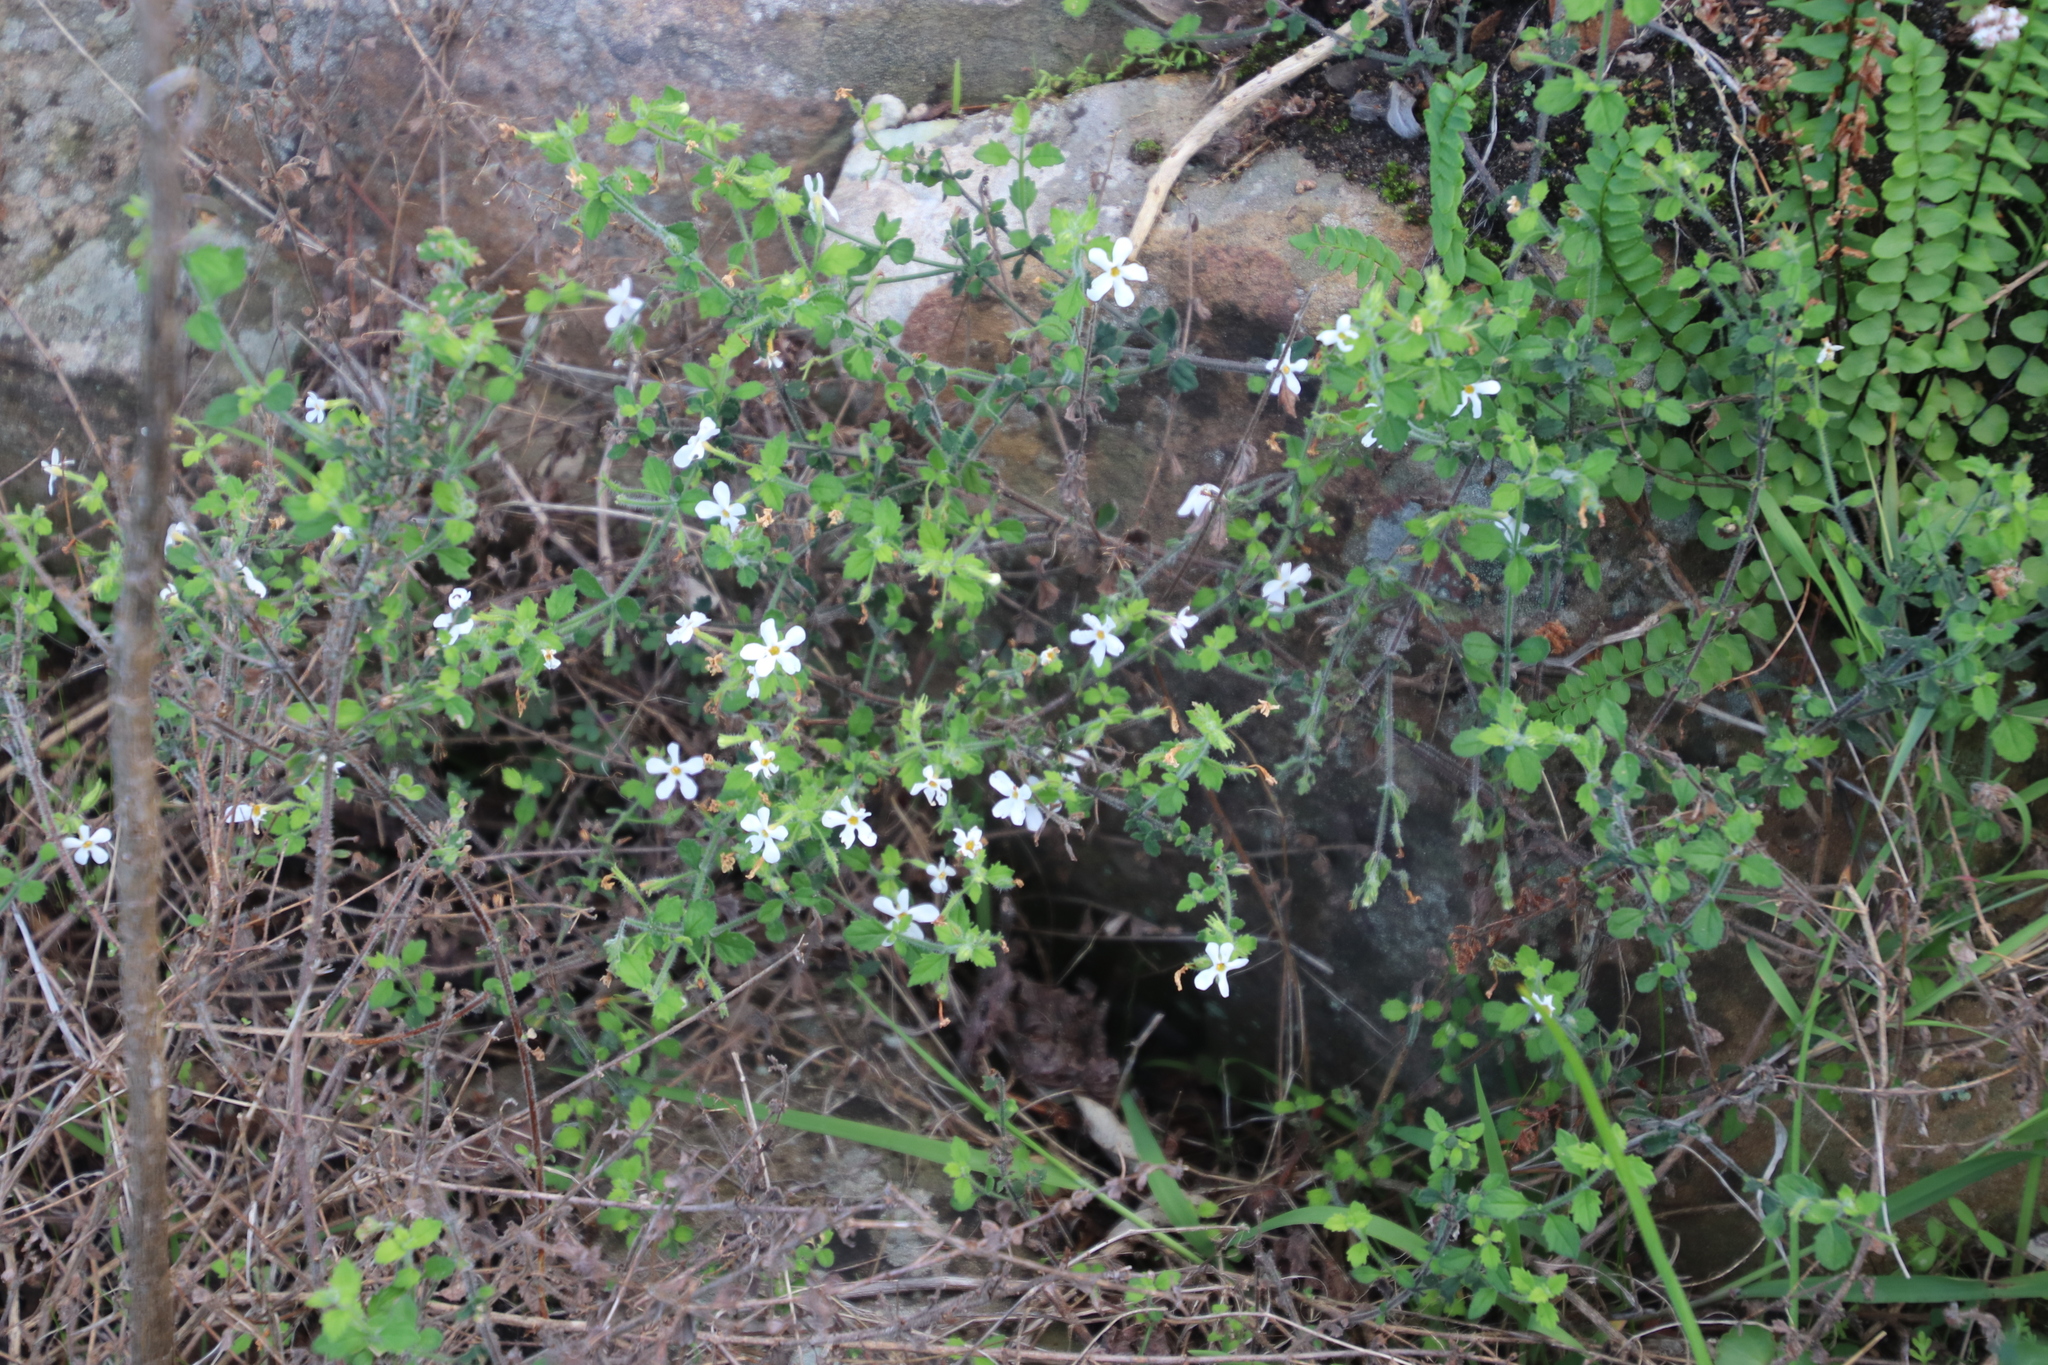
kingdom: Plantae
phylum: Tracheophyta
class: Magnoliopsida
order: Lamiales
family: Scrophulariaceae
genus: Chaenostoma
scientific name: Chaenostoma hispidum
